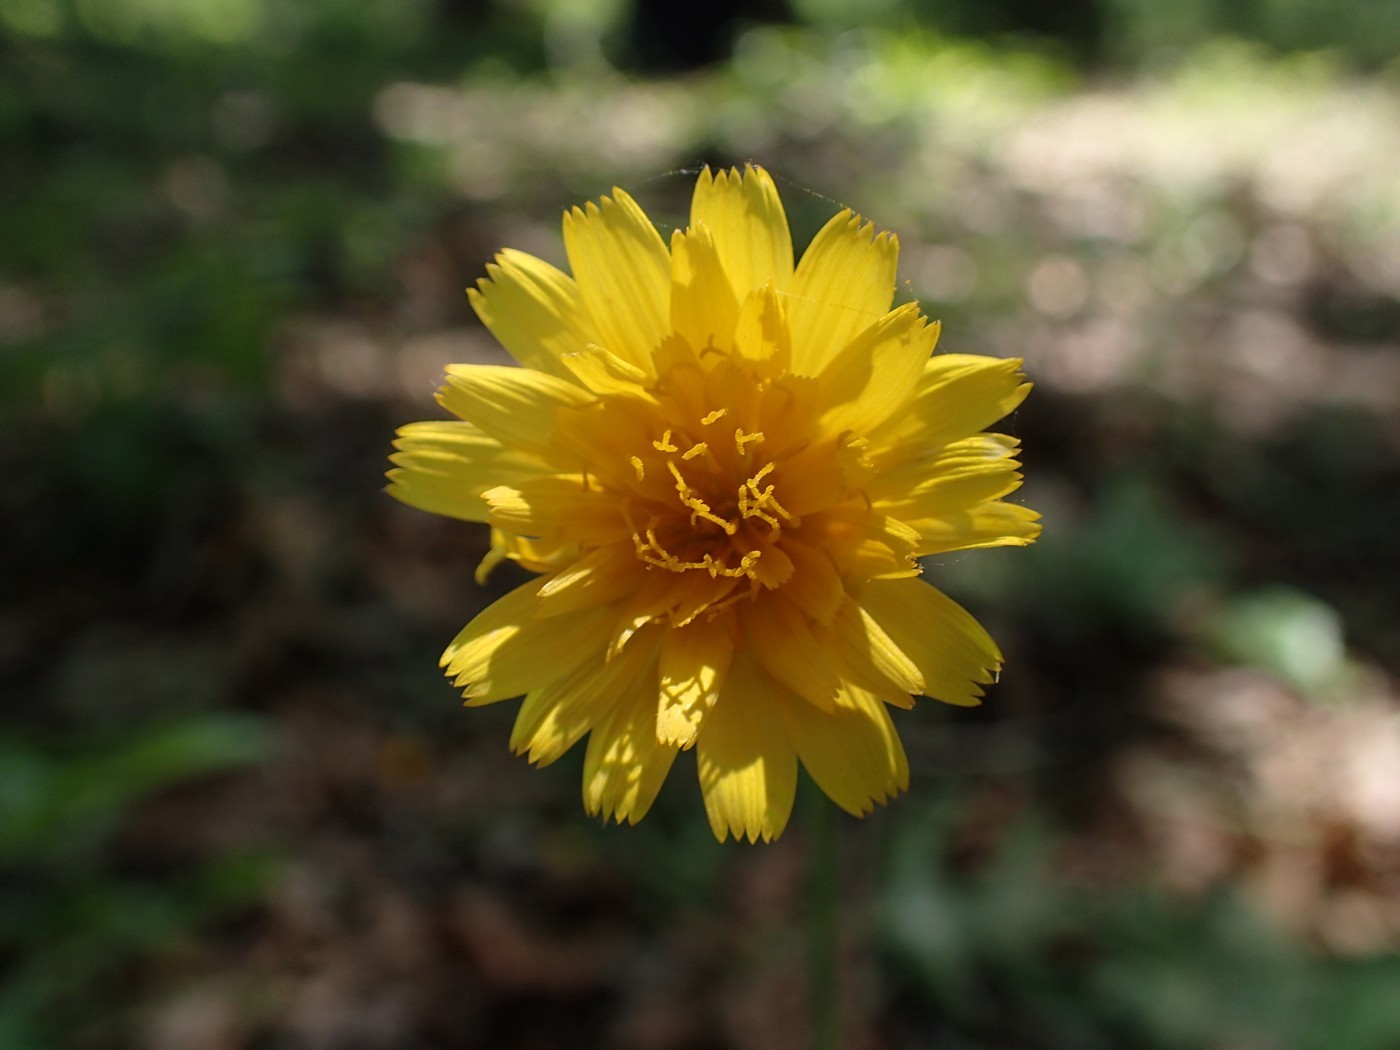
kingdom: Plantae
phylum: Tracheophyta
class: Magnoliopsida
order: Asterales
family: Asteraceae
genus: Krigia
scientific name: Krigia dandelion
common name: Colonial dwarf-dandelion
